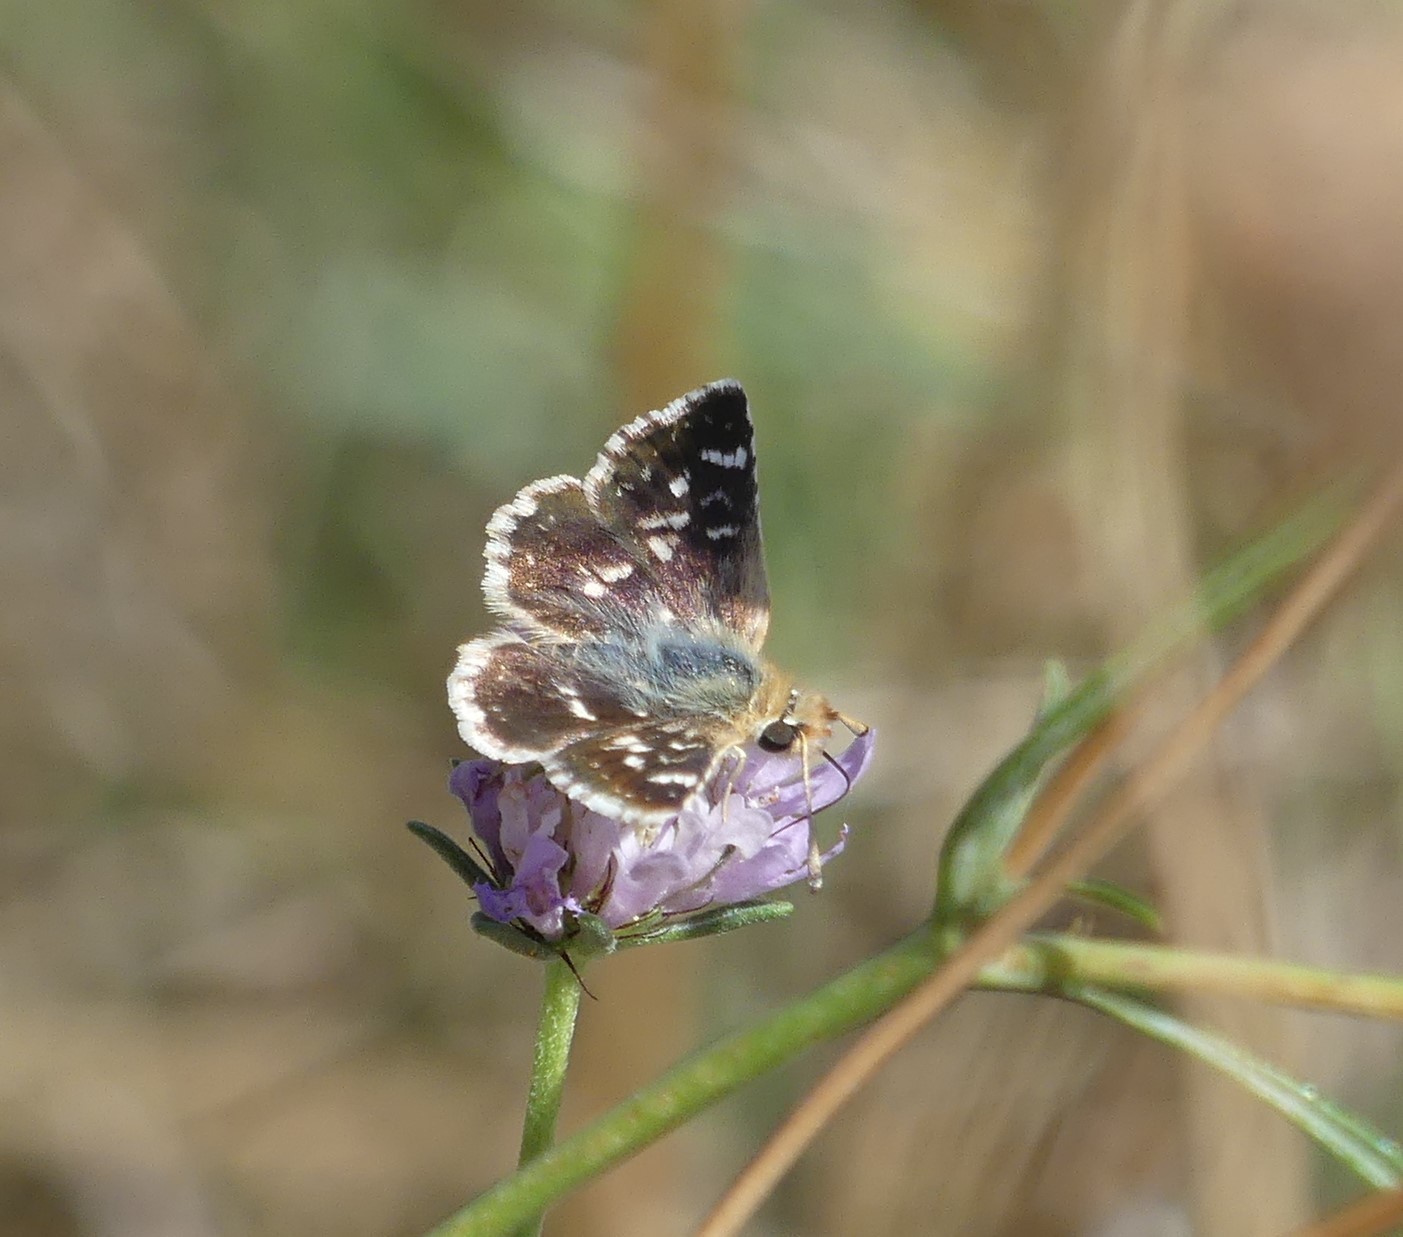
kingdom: Animalia
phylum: Arthropoda
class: Insecta
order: Lepidoptera
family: Hesperiidae
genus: Spialia
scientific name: Spialia sertorius
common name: Red underwing skipper
